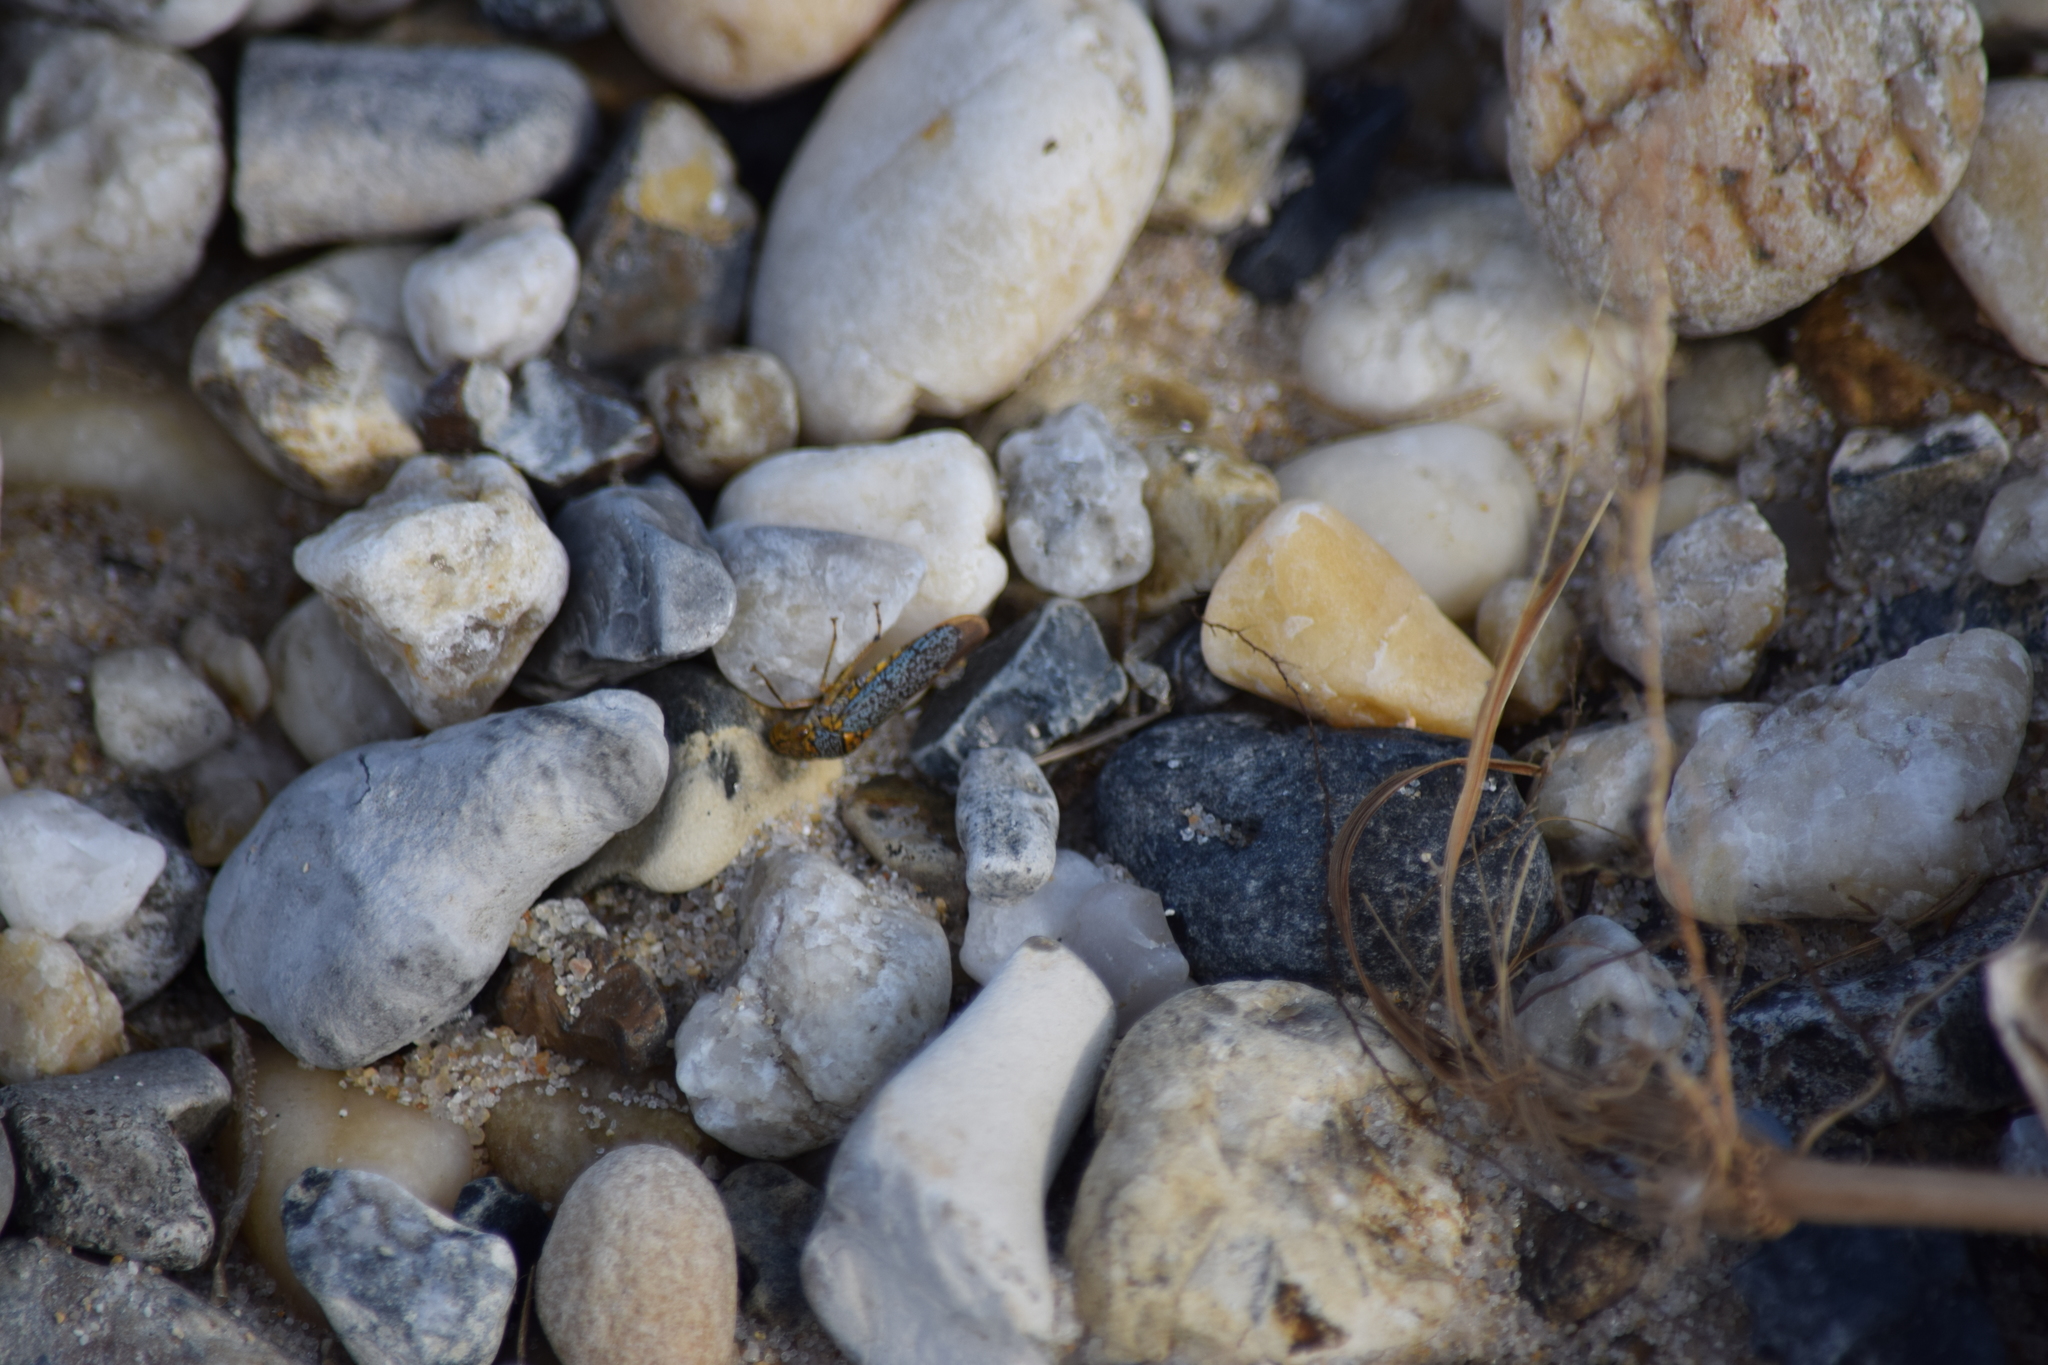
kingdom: Animalia
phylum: Arthropoda
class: Insecta
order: Hemiptera
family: Cicadellidae
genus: Oncometopia
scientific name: Oncometopia orbona
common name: Broad-headed sharpshooter
